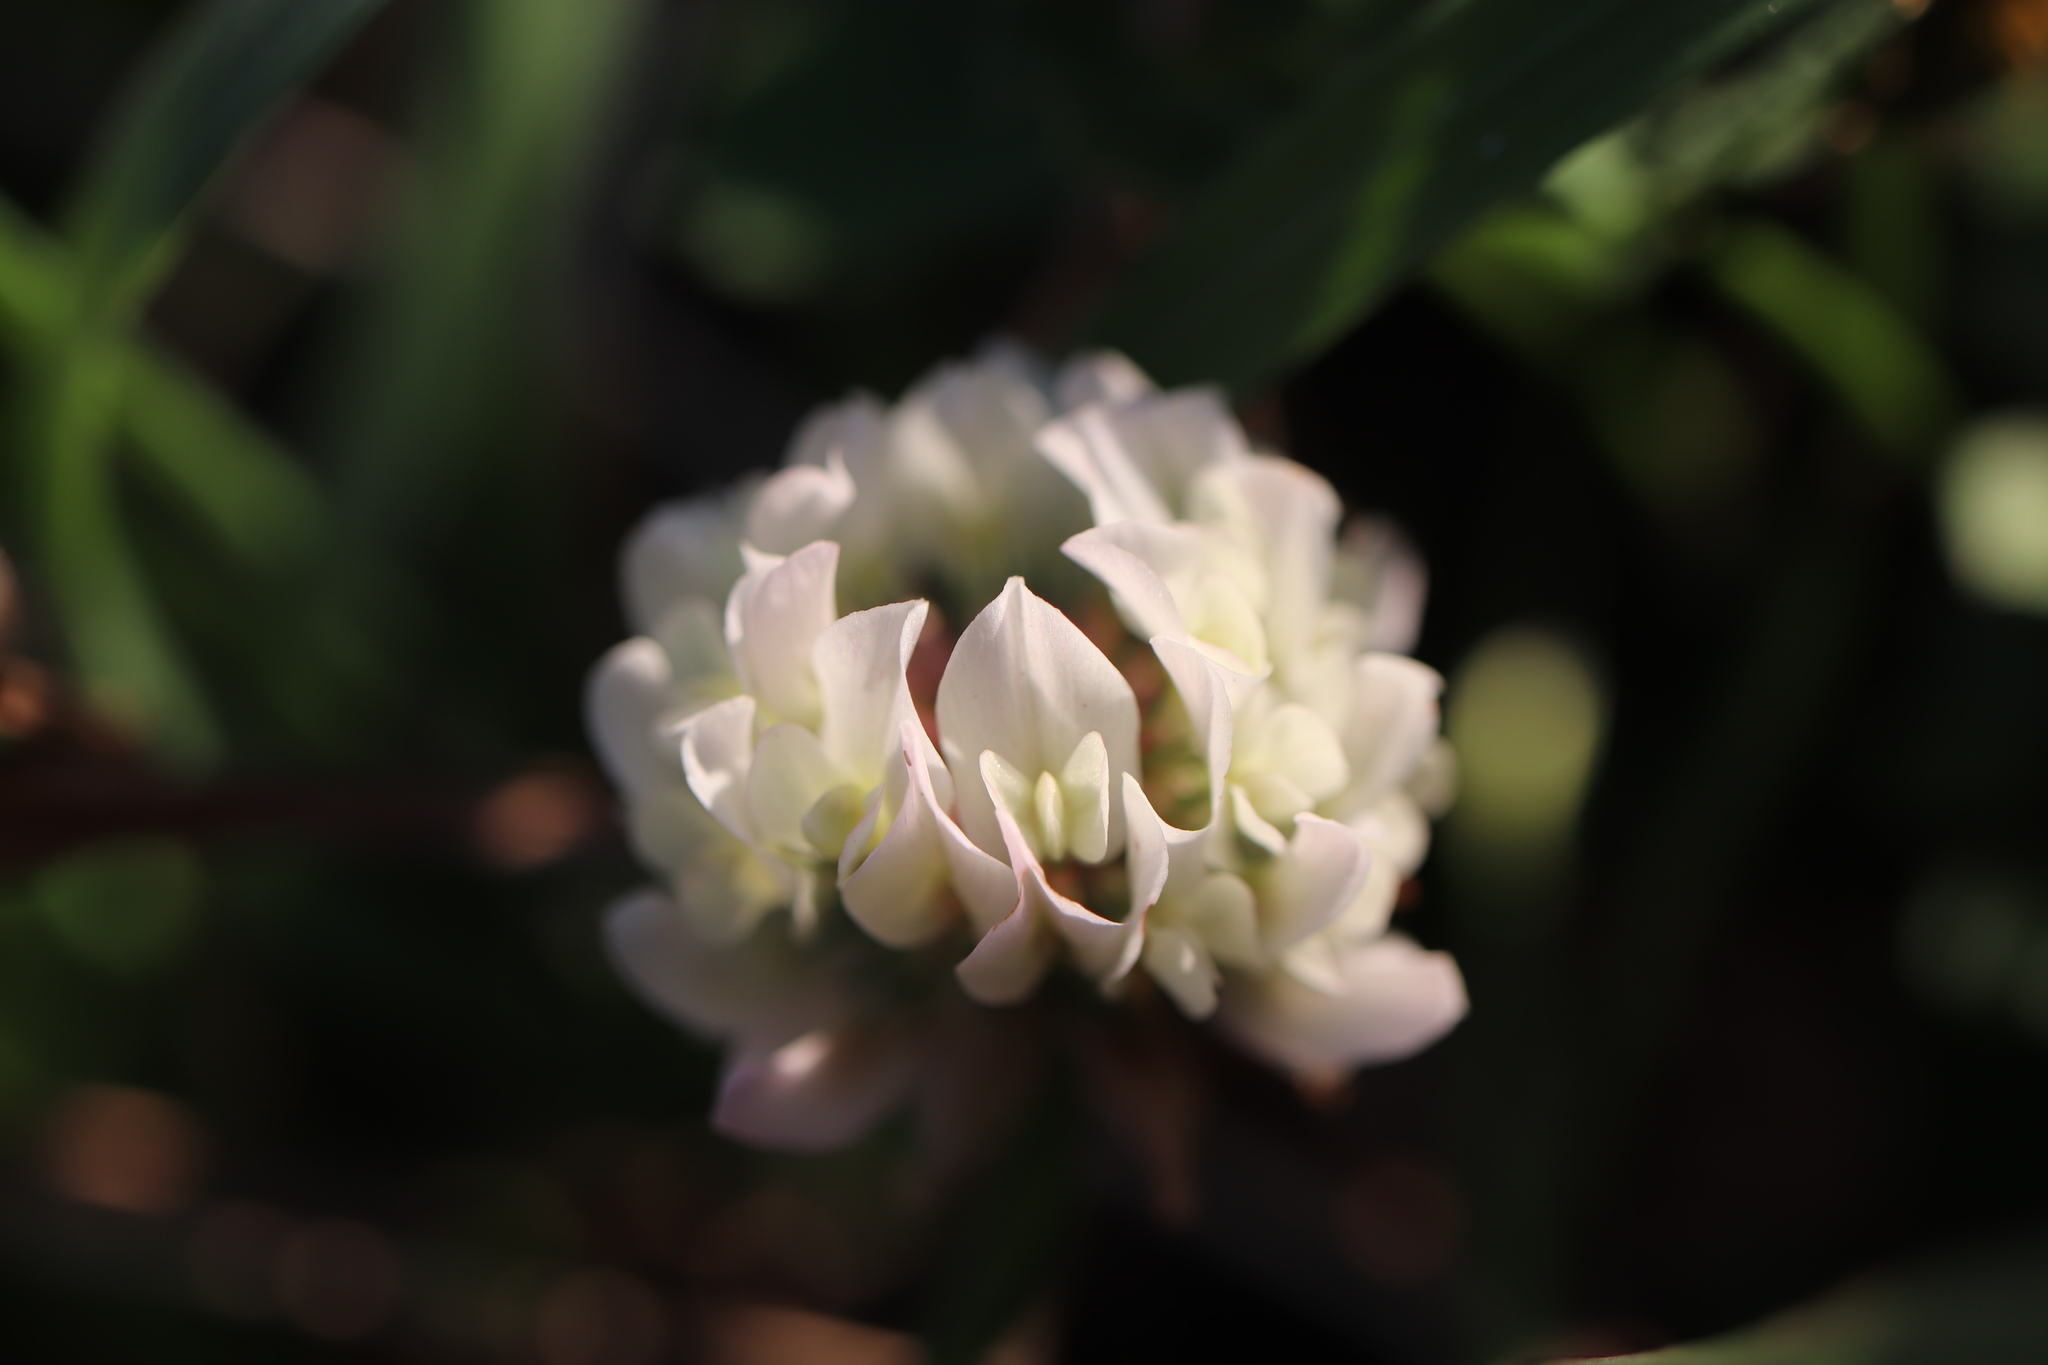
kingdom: Plantae
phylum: Tracheophyta
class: Magnoliopsida
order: Fabales
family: Fabaceae
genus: Trifolium
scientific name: Trifolium repens
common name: White clover
